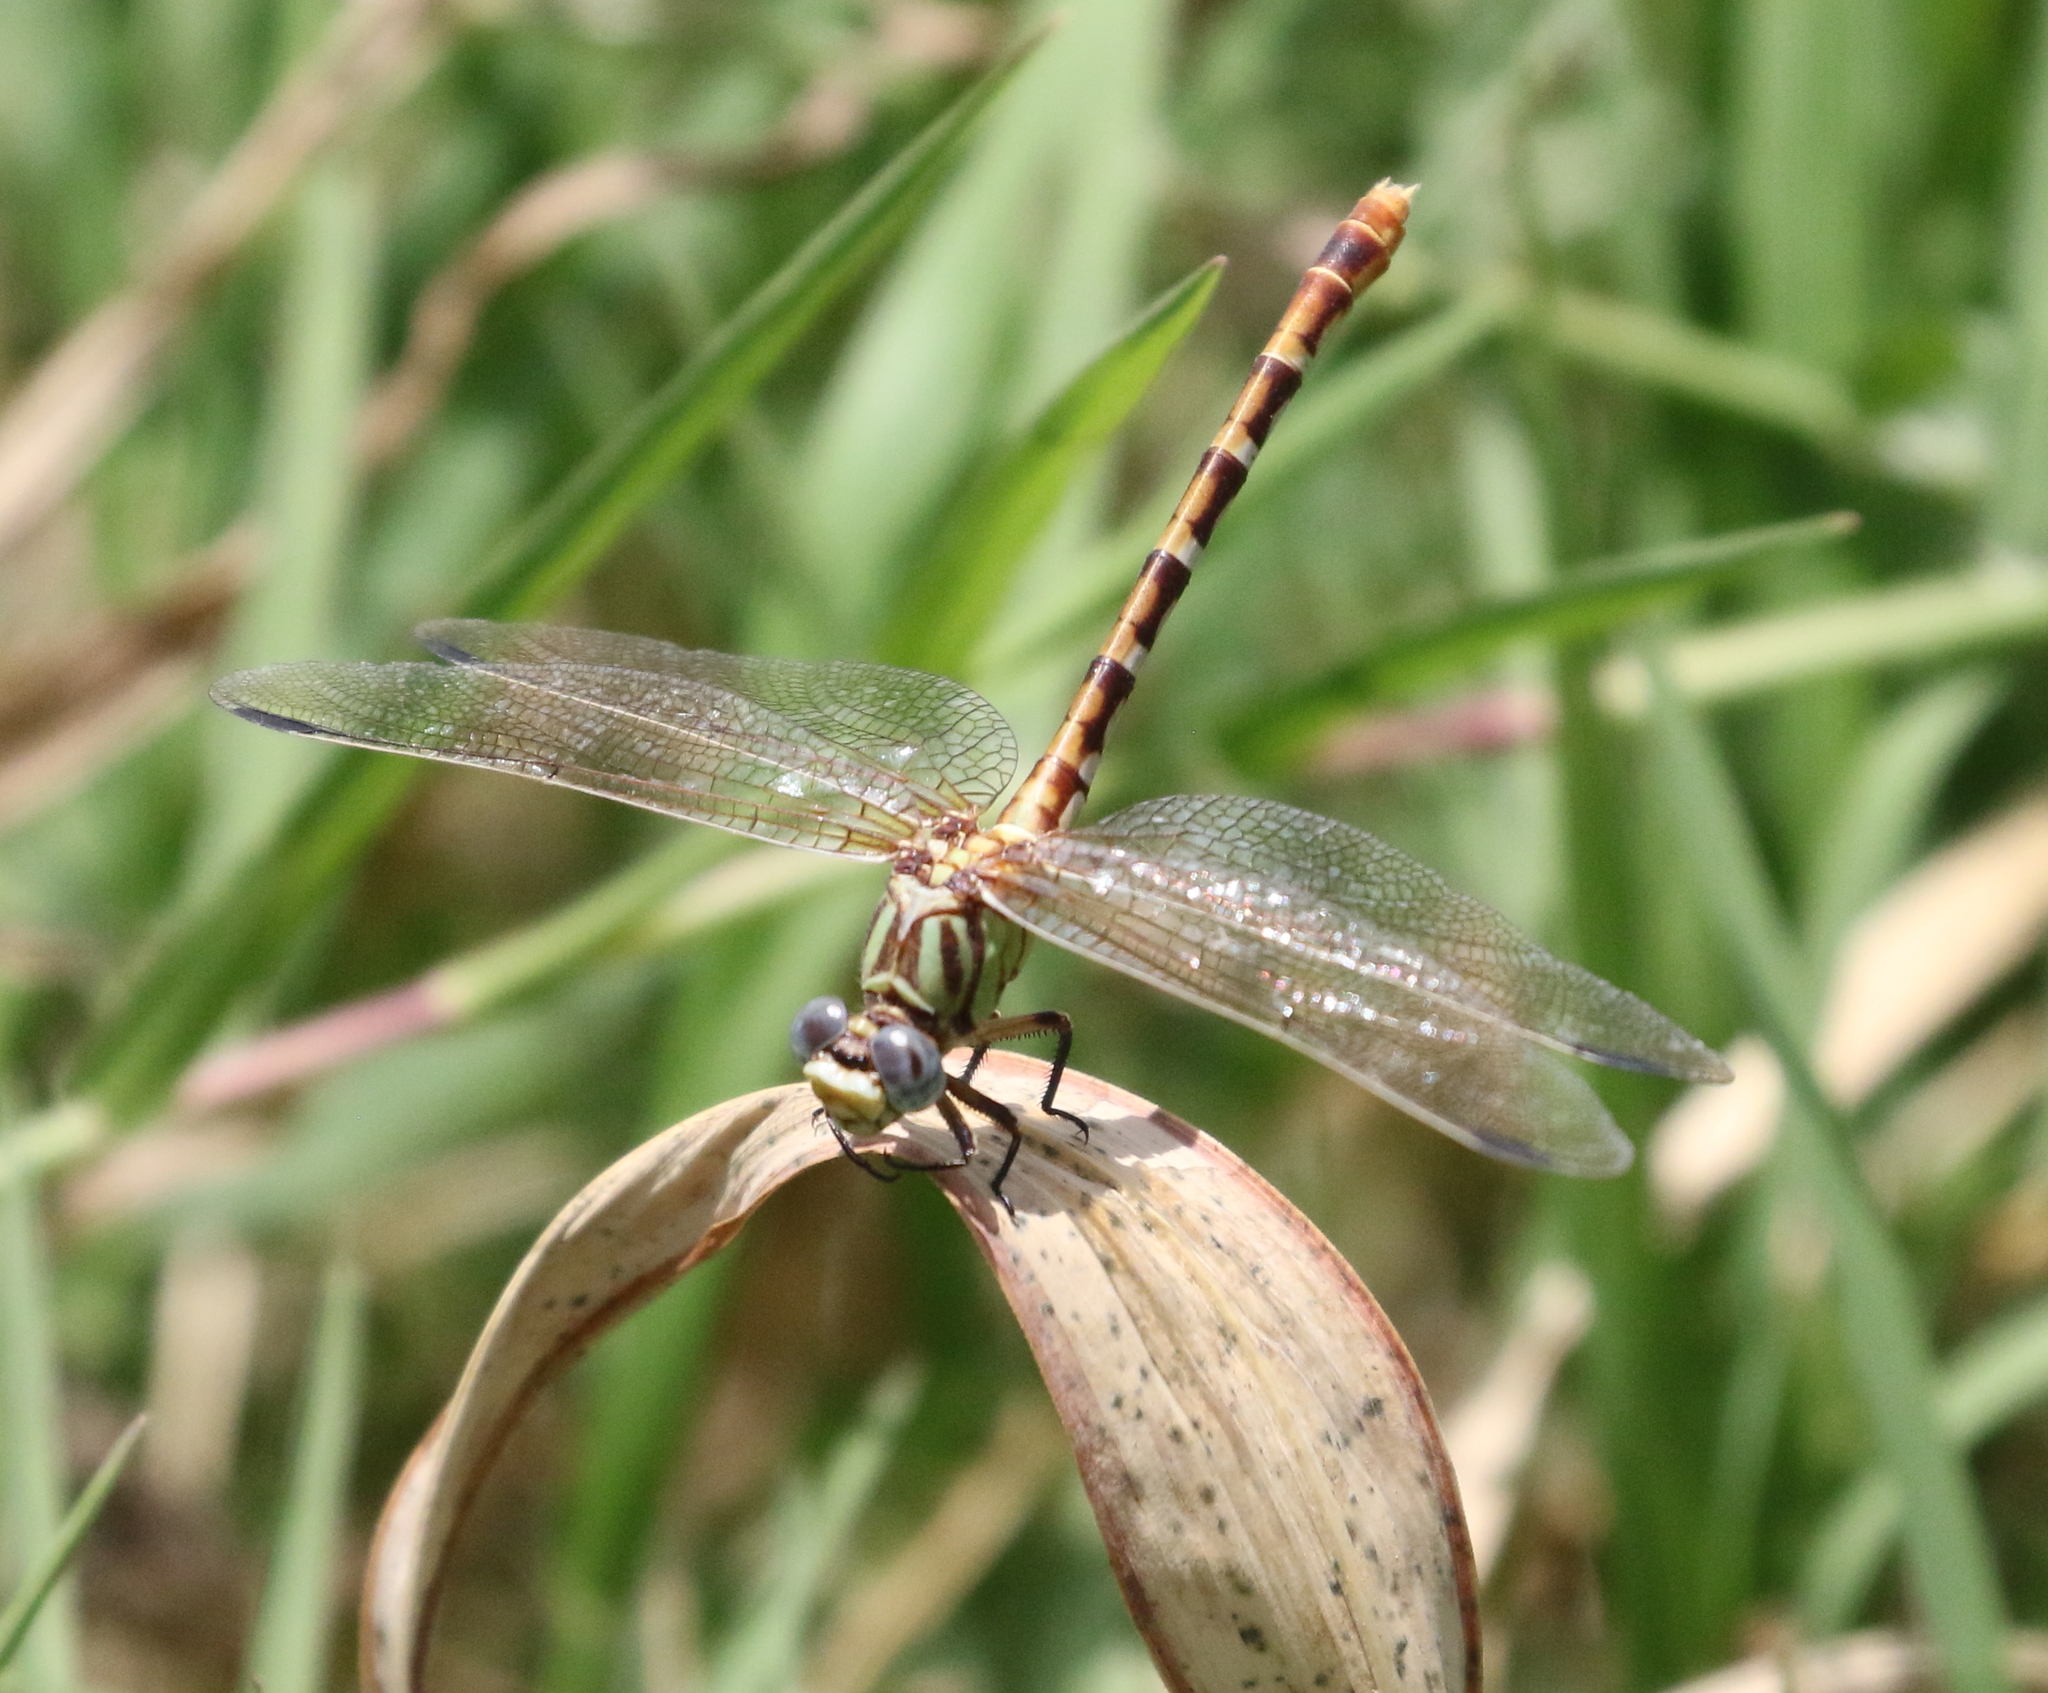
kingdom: Animalia
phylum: Arthropoda
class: Insecta
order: Odonata
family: Gomphidae
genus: Erpetogomphus
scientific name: Erpetogomphus designatus
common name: Eastern ringtail
